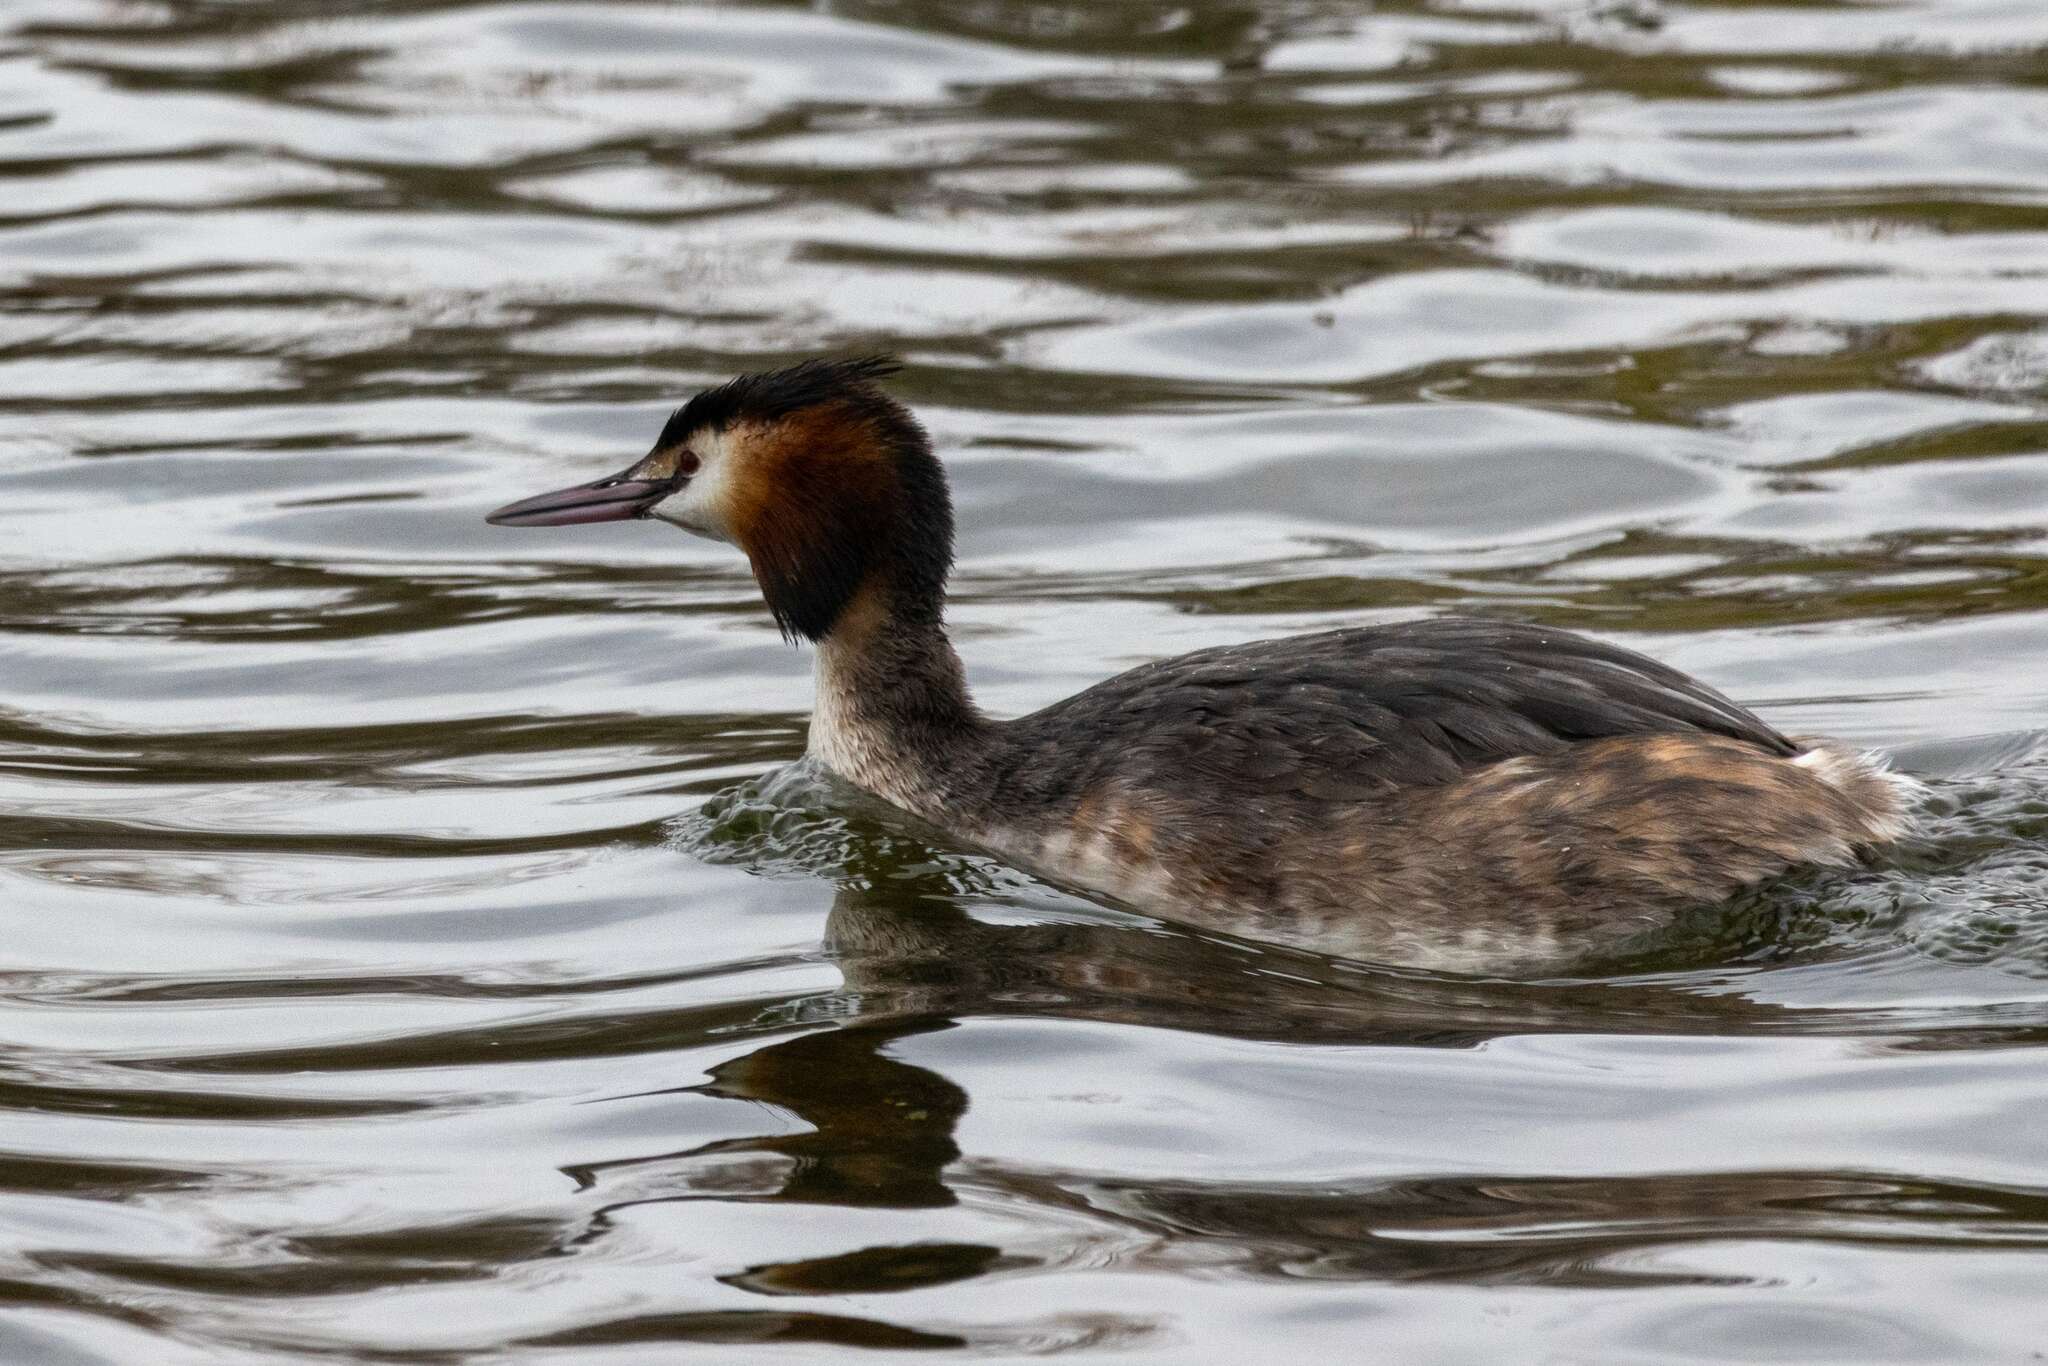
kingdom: Animalia
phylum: Chordata
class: Aves
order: Podicipediformes
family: Podicipedidae
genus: Podiceps
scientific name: Podiceps cristatus
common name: Great crested grebe
